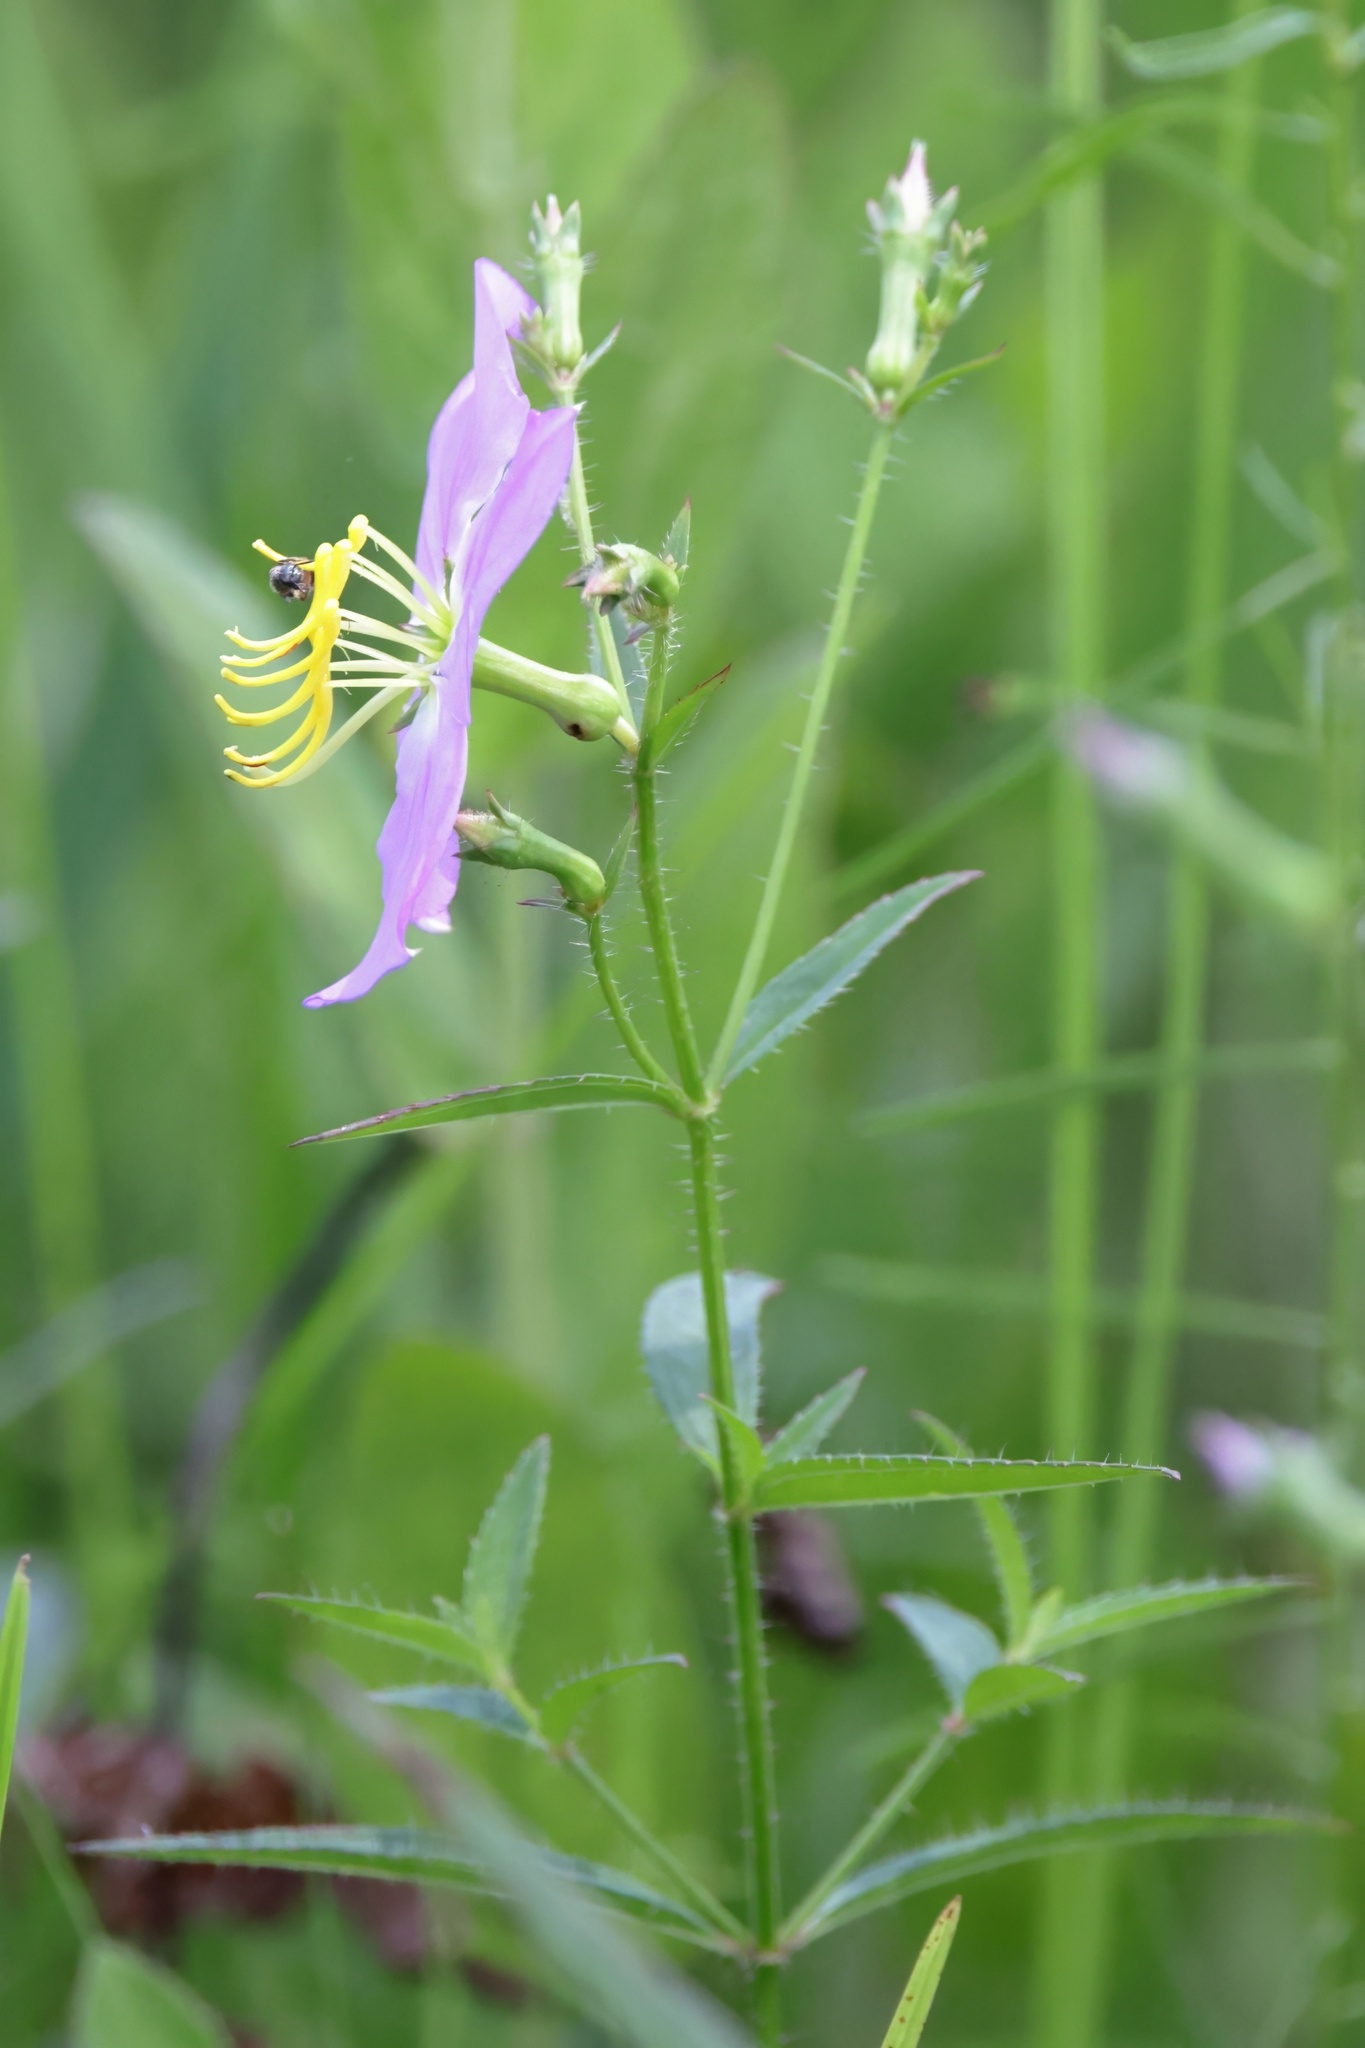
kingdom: Plantae
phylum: Tracheophyta
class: Magnoliopsida
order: Myrtales
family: Melastomataceae
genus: Rhexia
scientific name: Rhexia nashii
